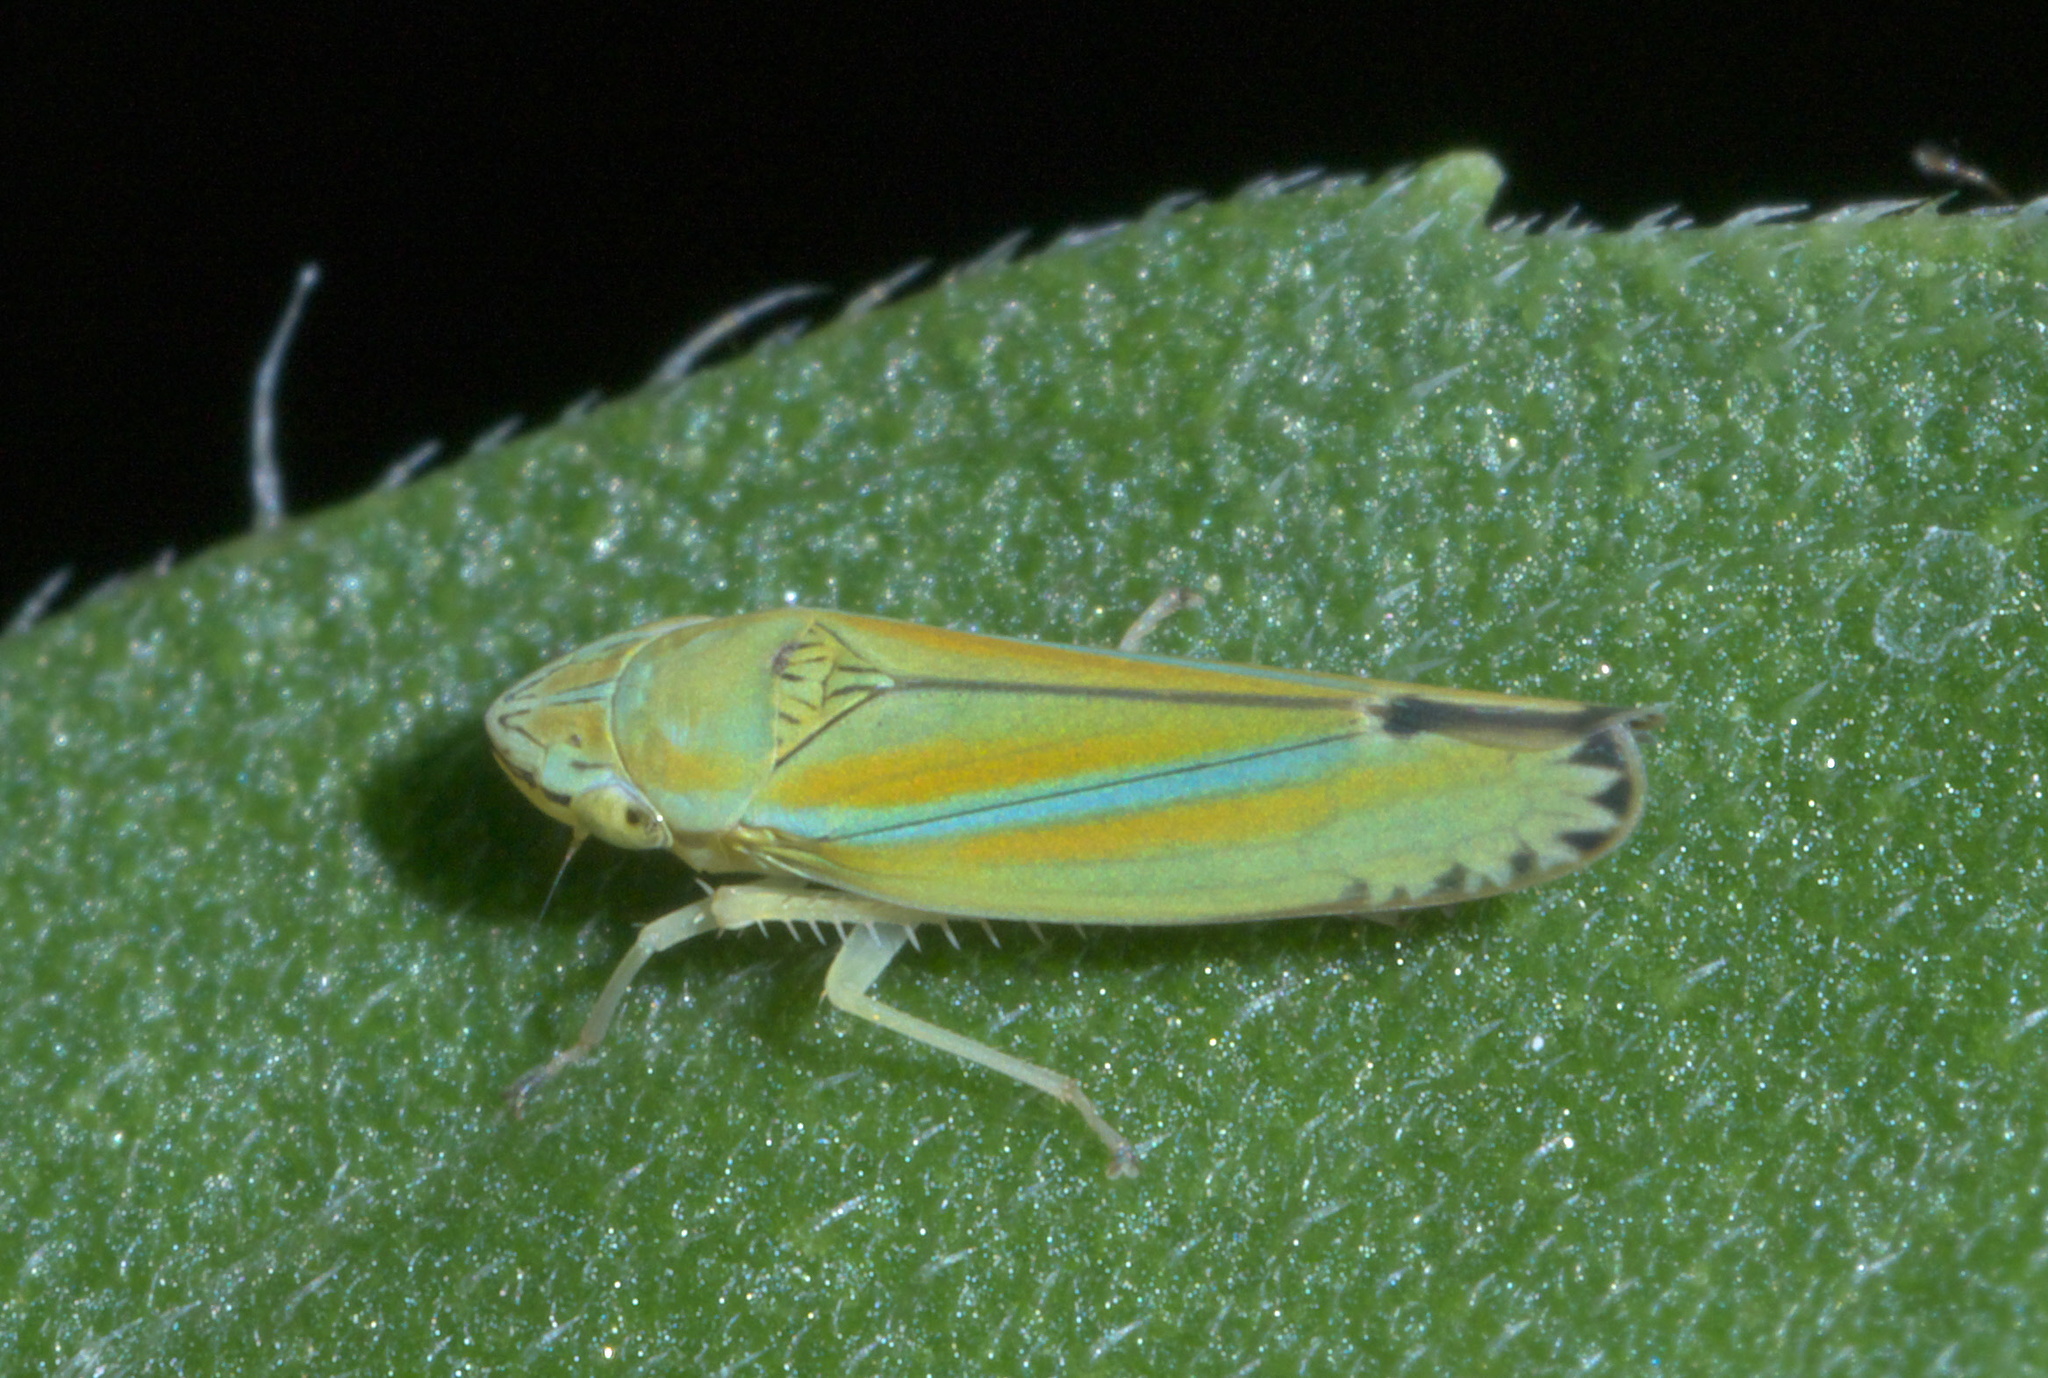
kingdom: Animalia
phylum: Arthropoda
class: Insecta
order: Hemiptera
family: Cicadellidae
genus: Graphocephala
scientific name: Graphocephala versuta
